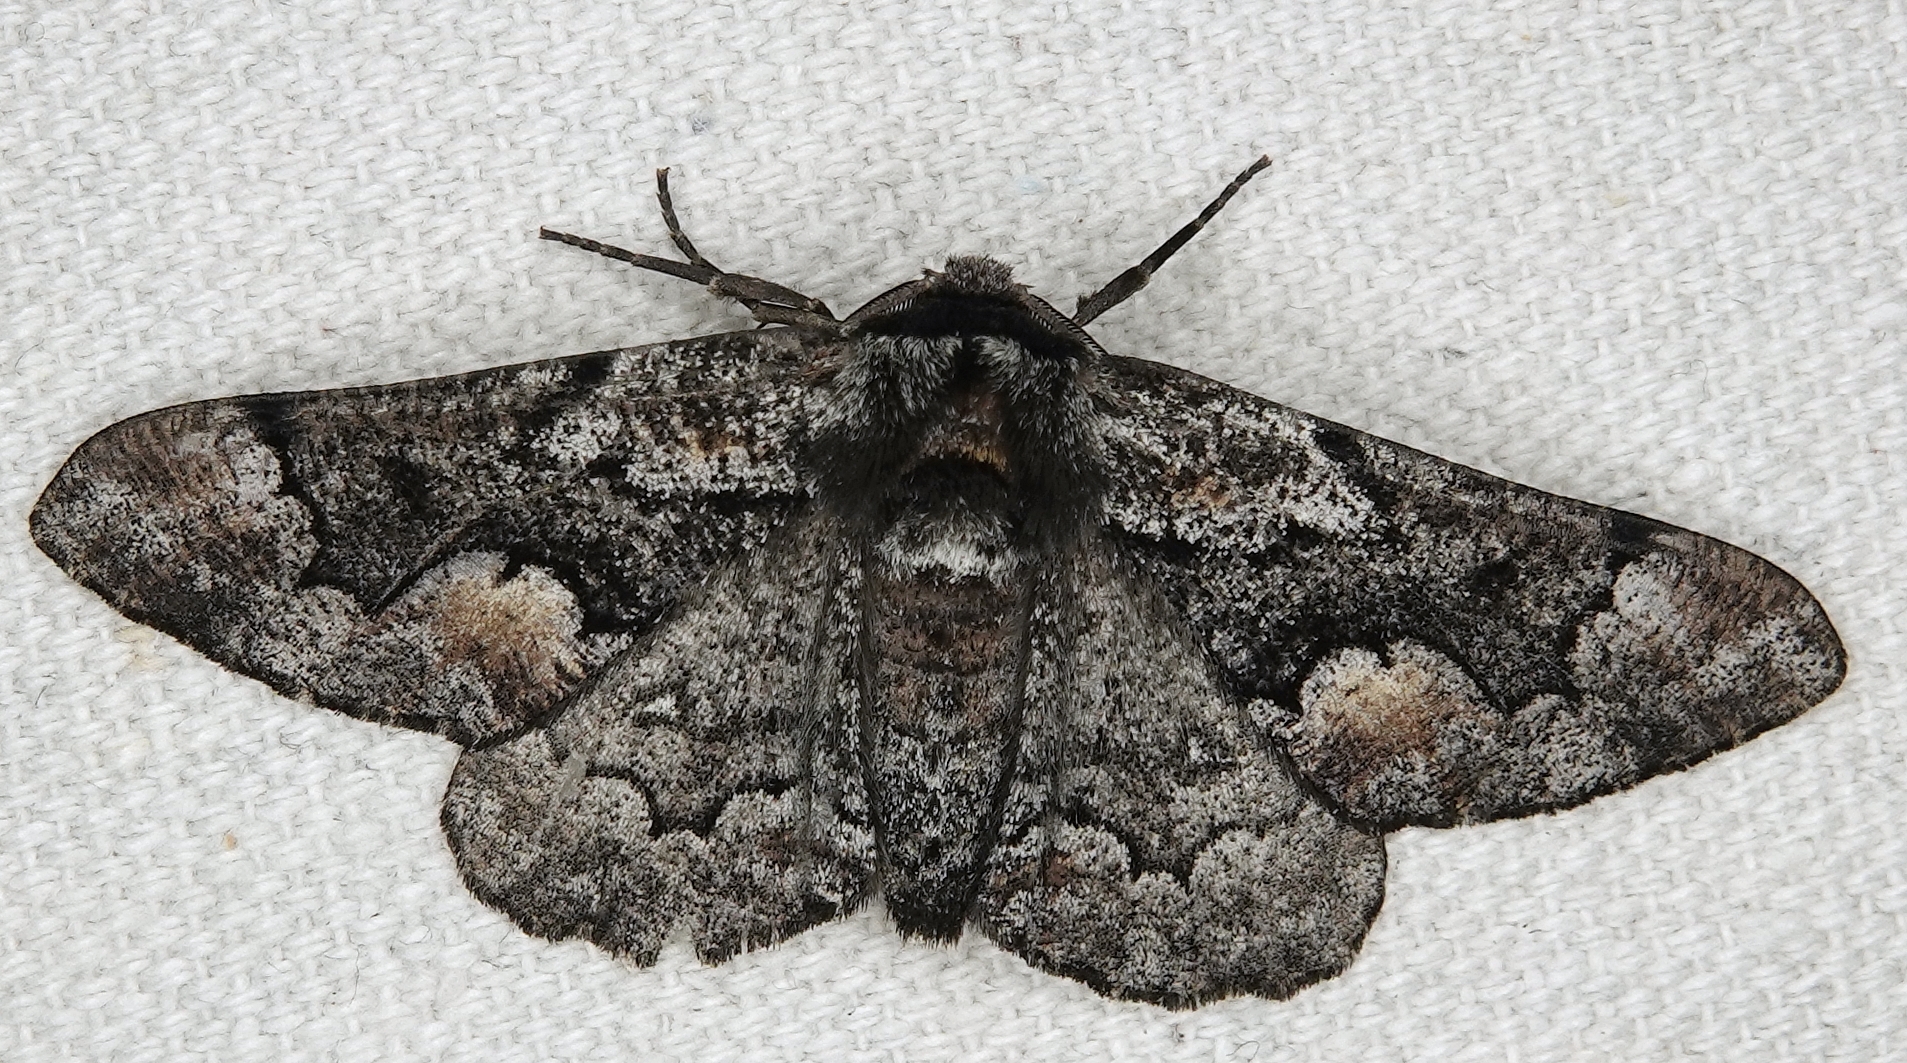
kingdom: Animalia
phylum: Arthropoda
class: Insecta
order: Lepidoptera
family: Geometridae
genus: Phaeoura
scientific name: Phaeoura mexicanaria
